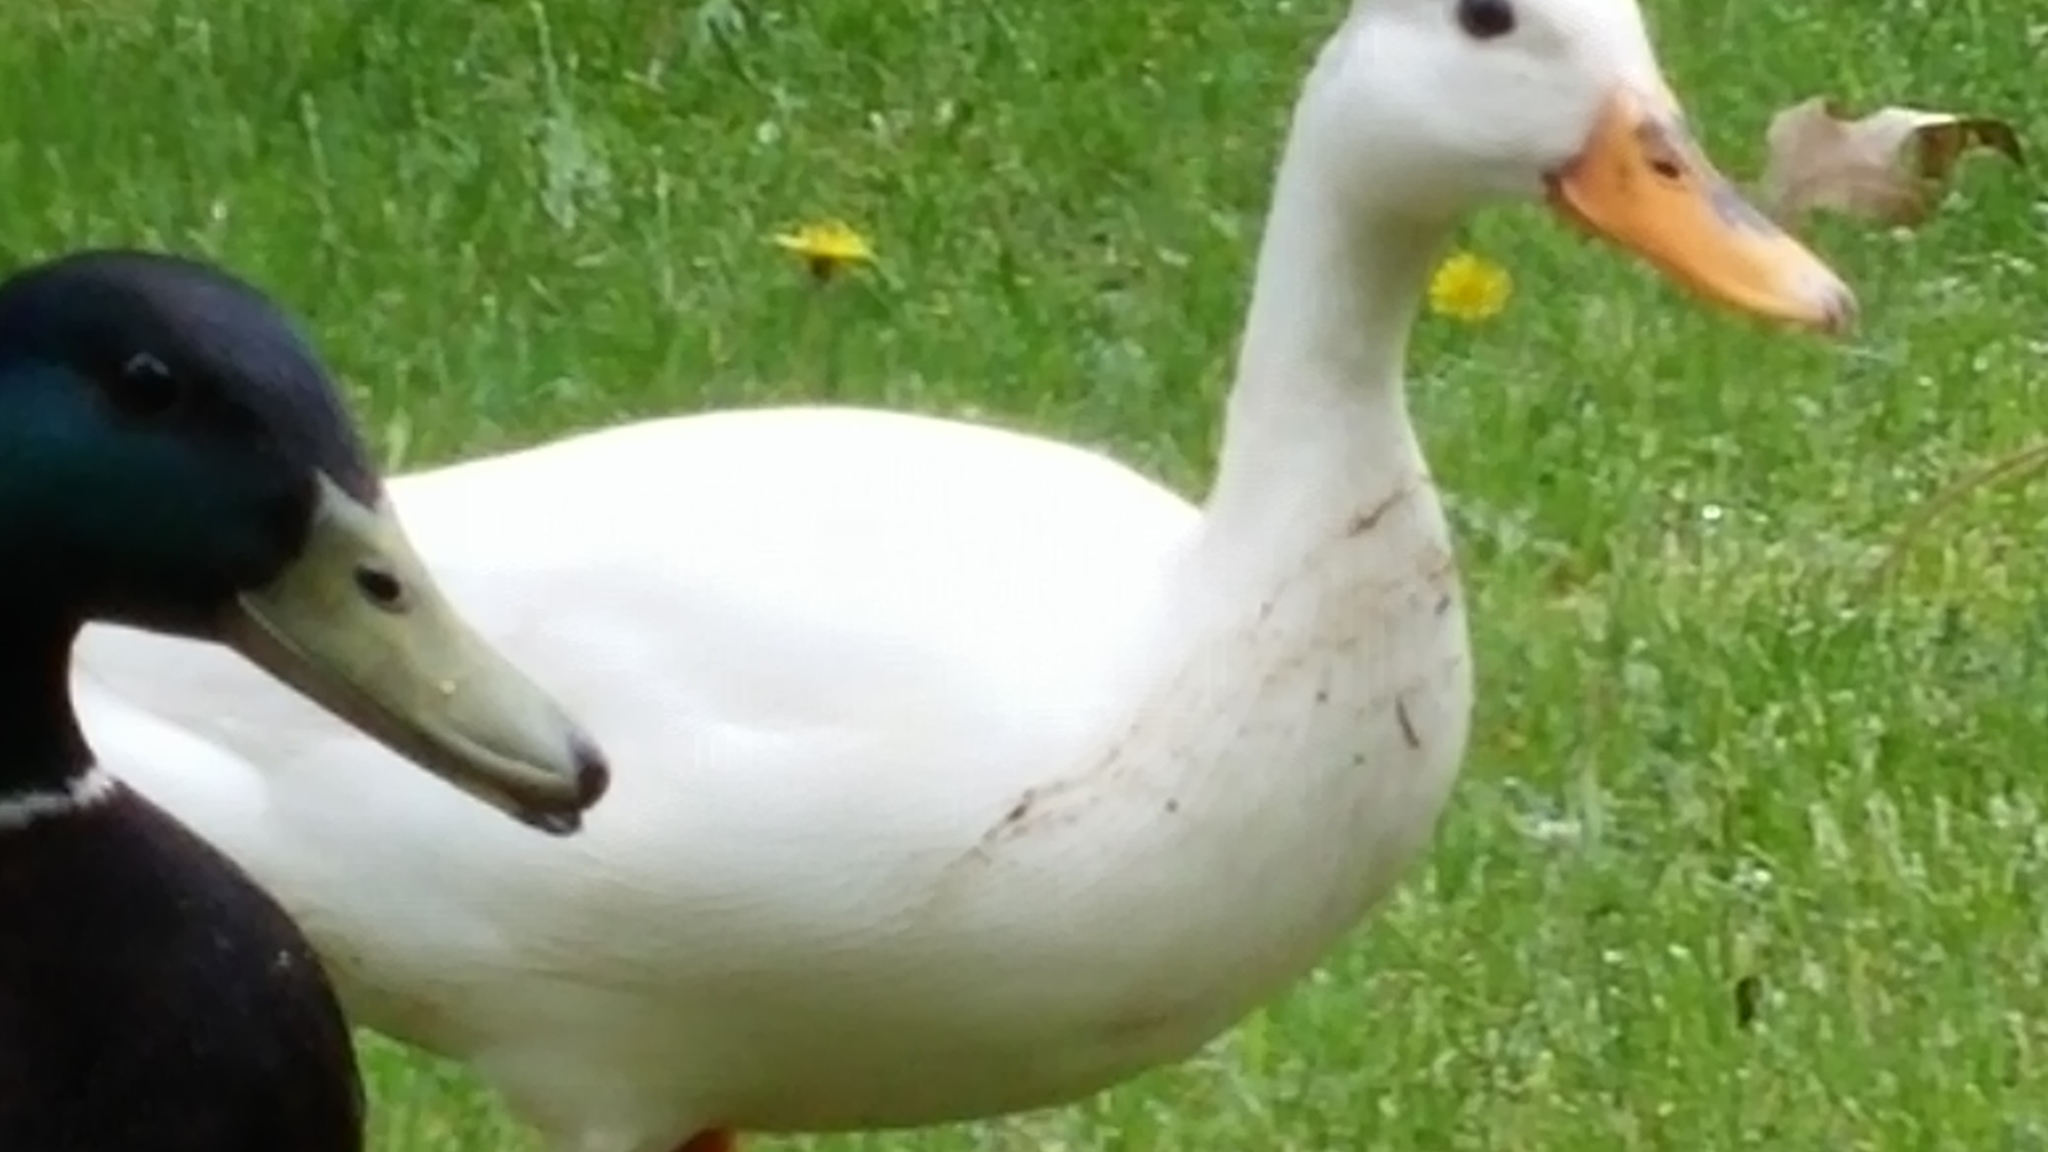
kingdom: Animalia
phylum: Chordata
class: Aves
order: Anseriformes
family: Anatidae
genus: Anas
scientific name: Anas platyrhynchos
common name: Mallard
